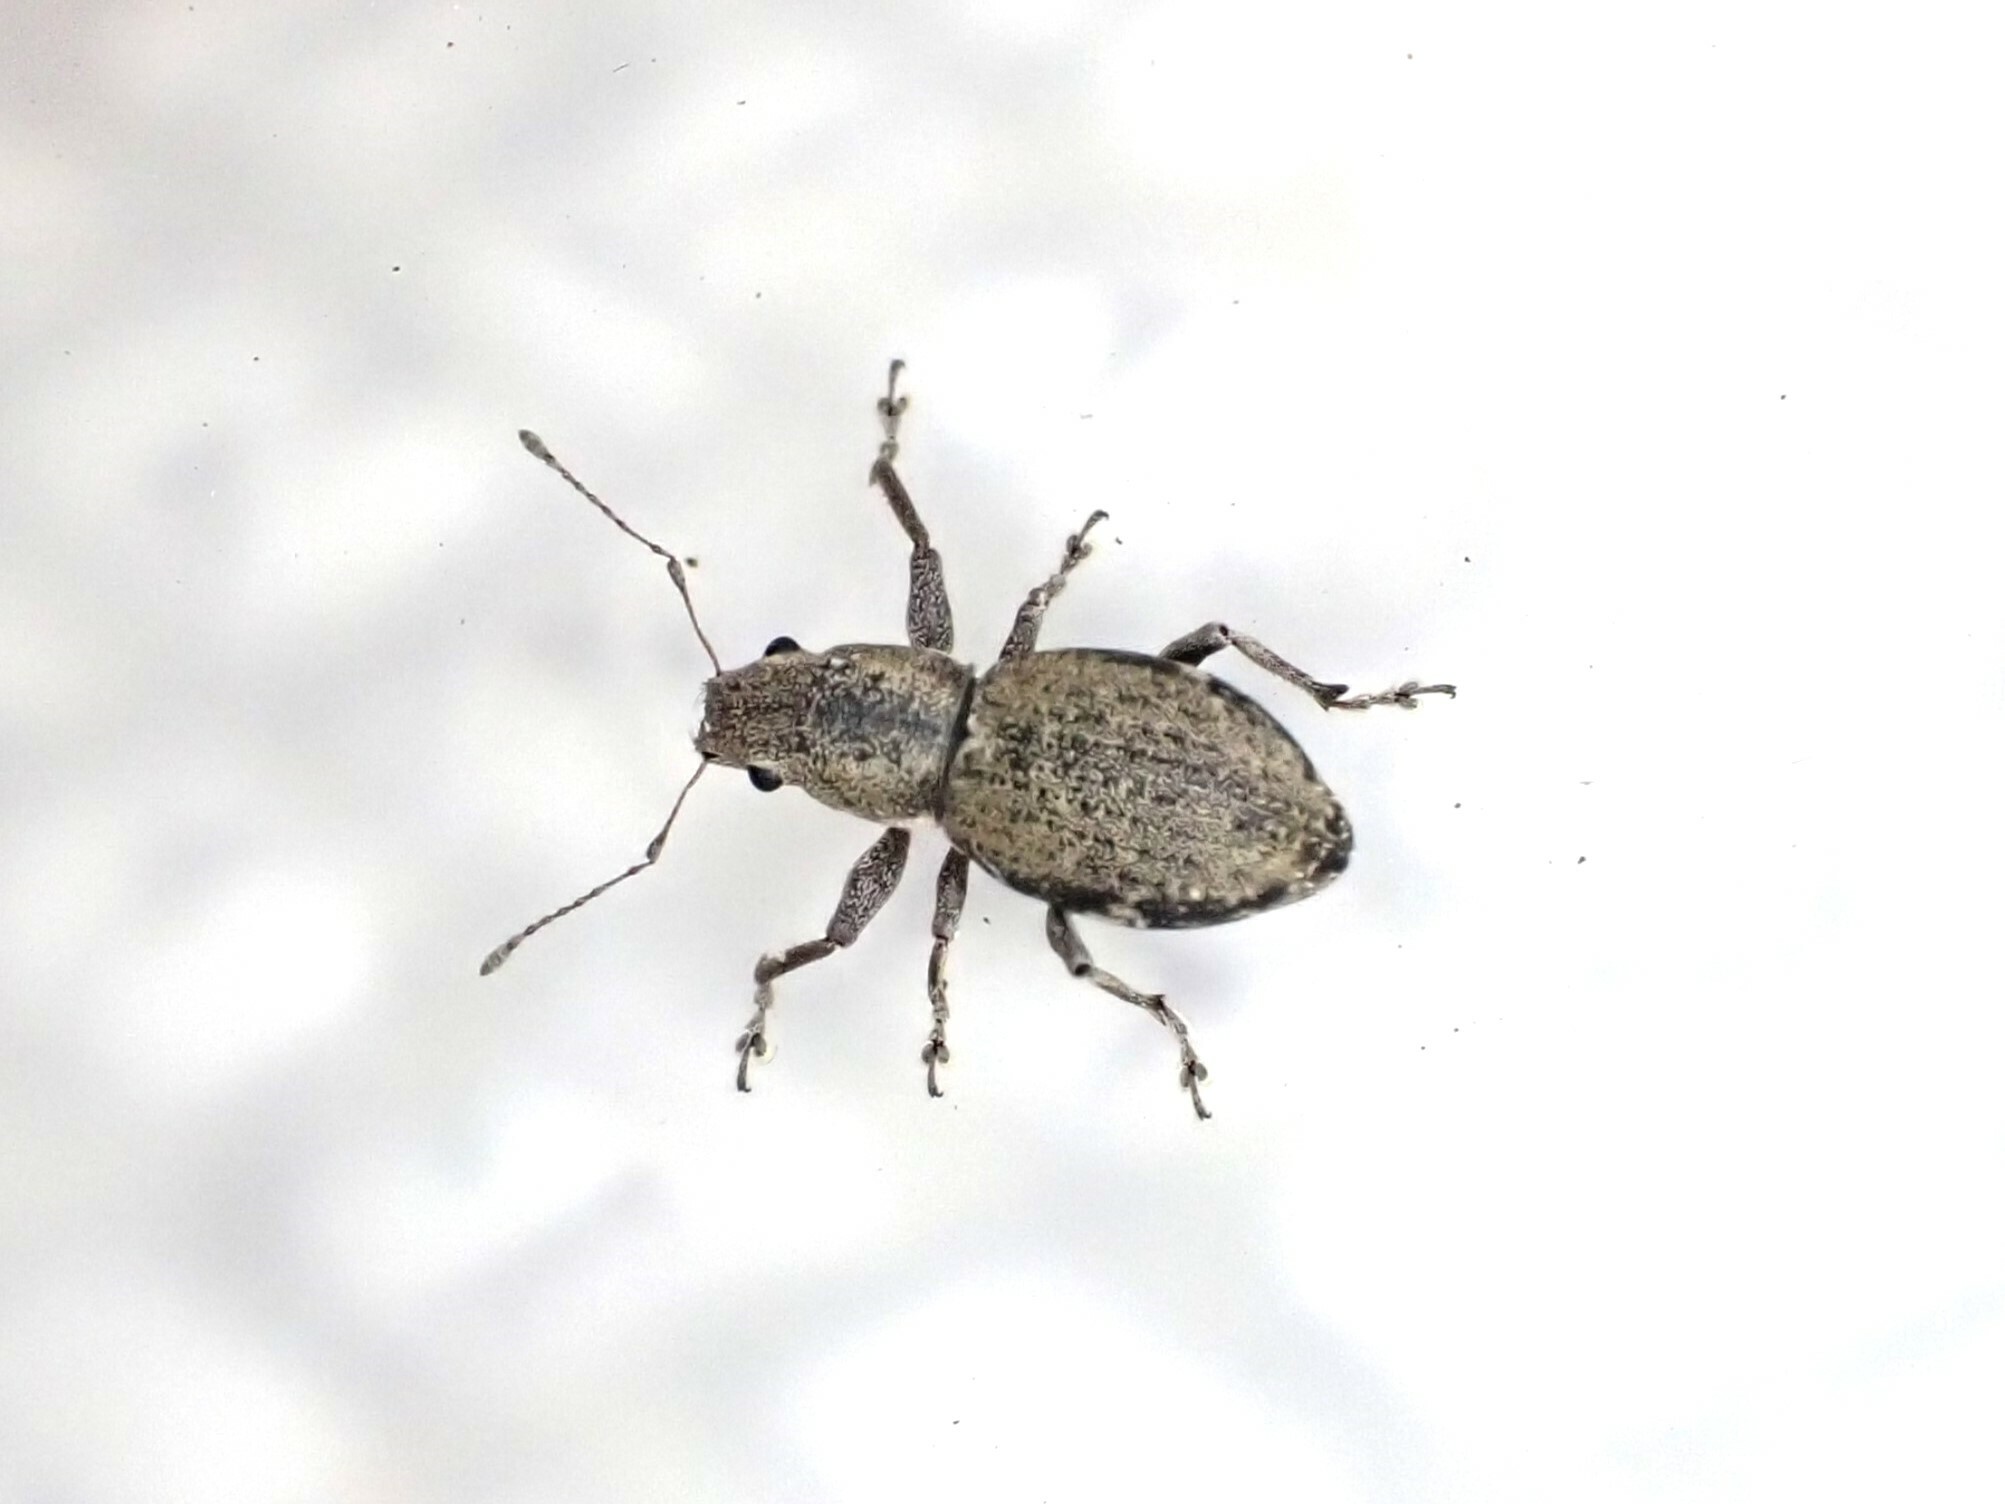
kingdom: Animalia
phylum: Arthropoda
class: Insecta
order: Coleoptera
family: Curculionidae
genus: Naupactus
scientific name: Naupactus cervinus
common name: Fuller rose beetle
